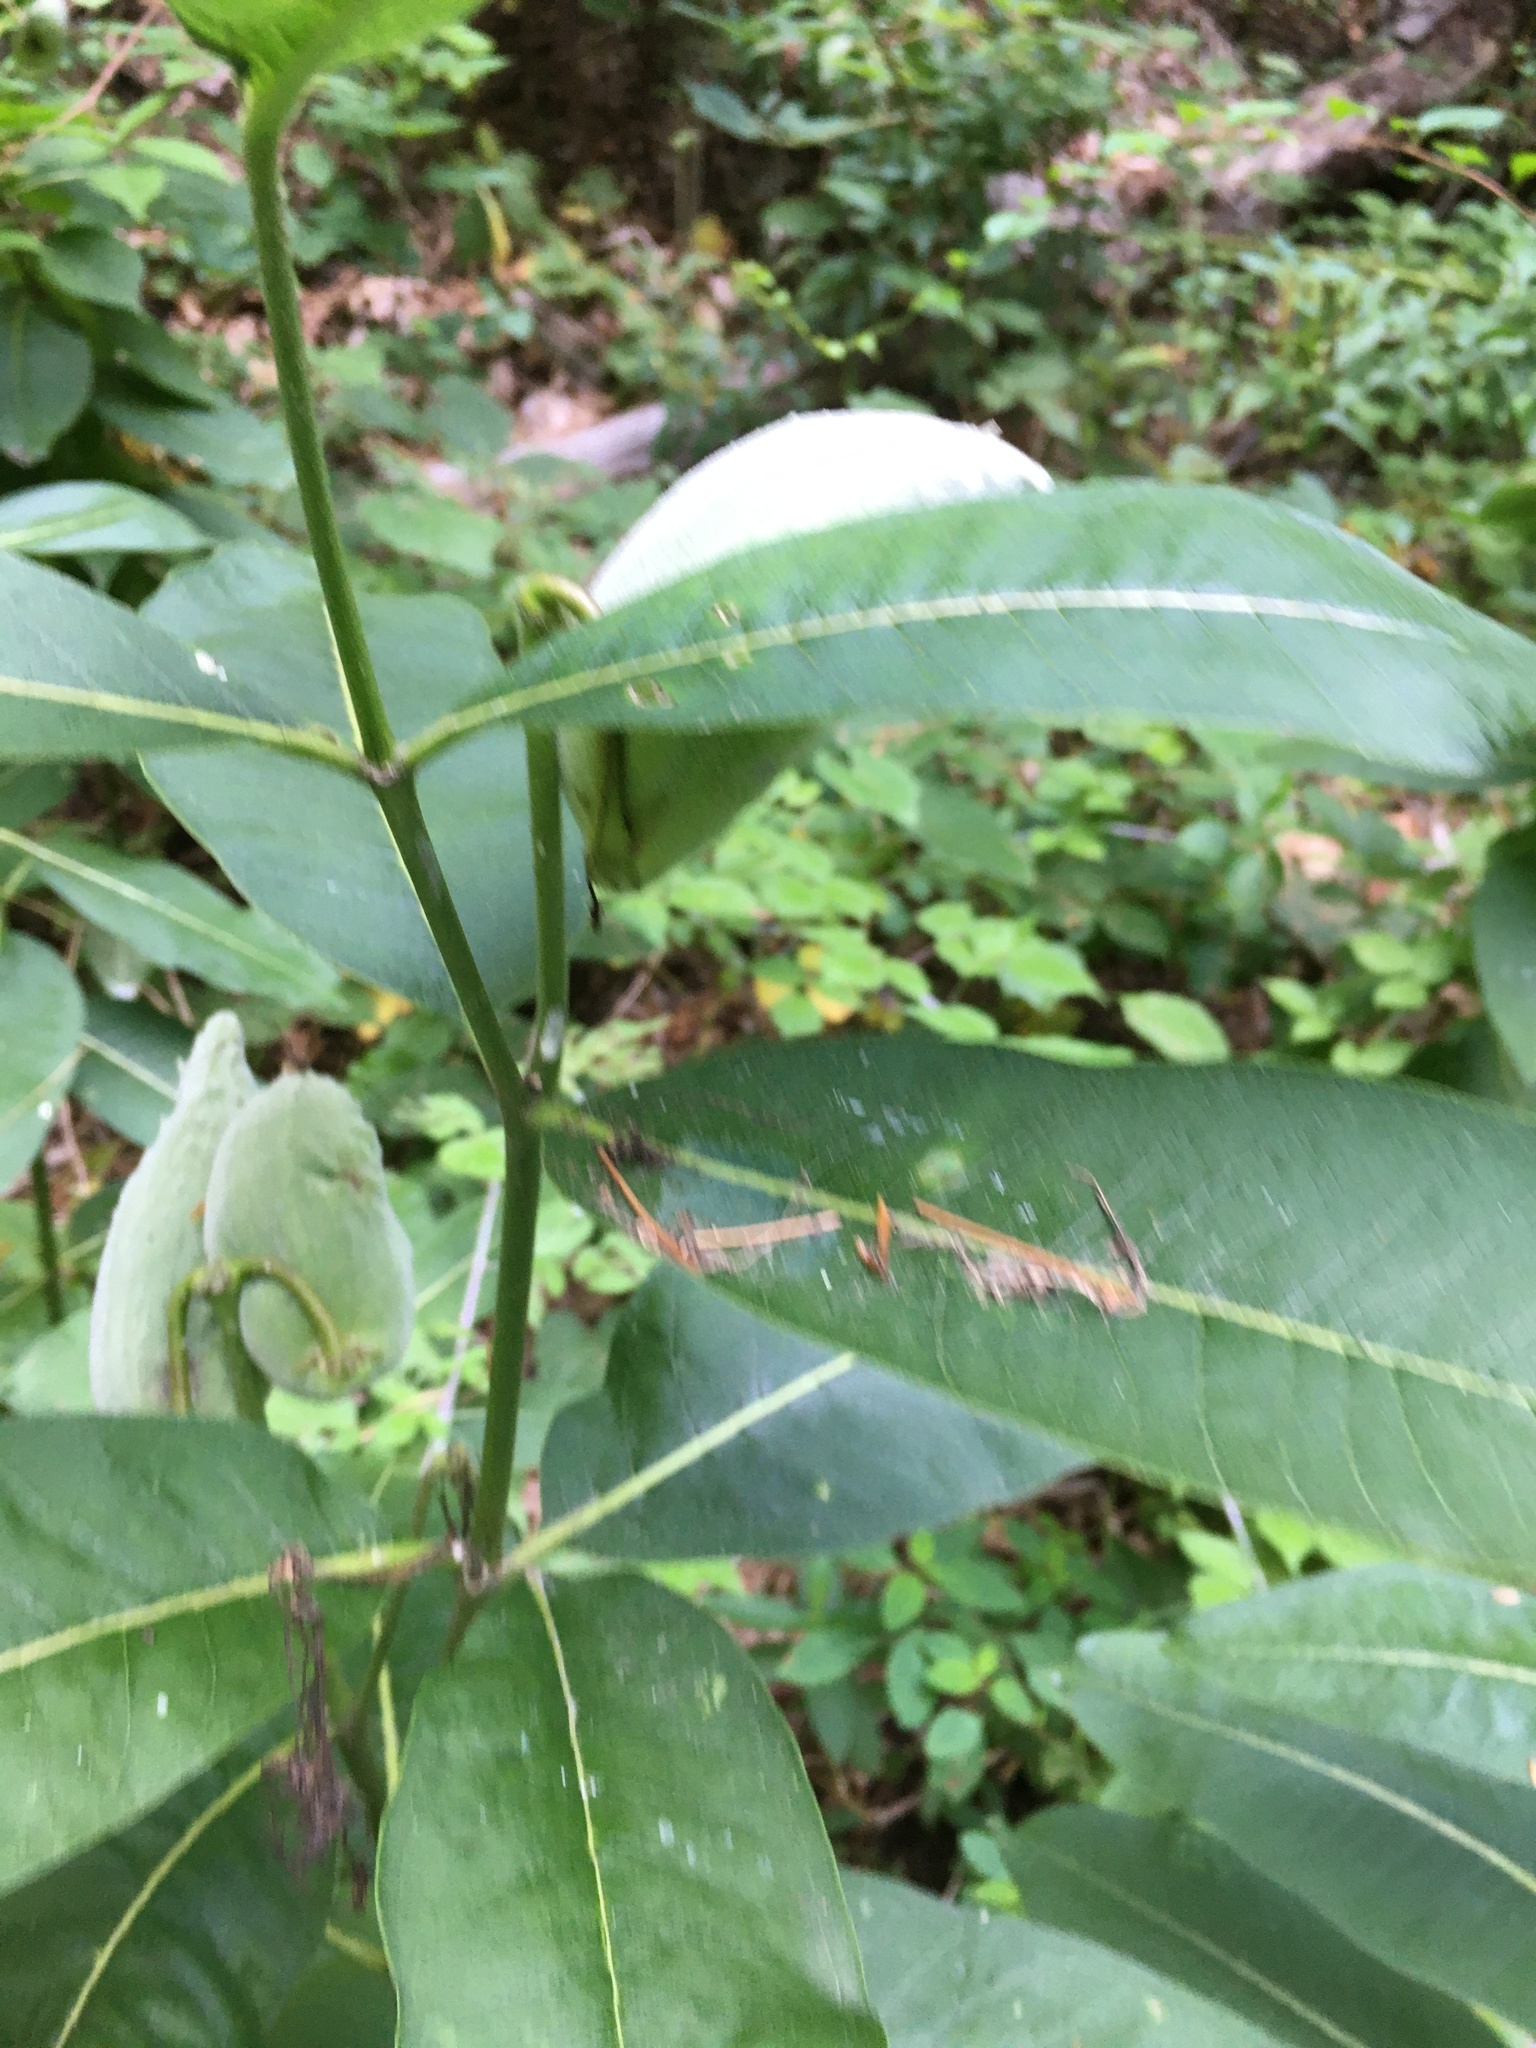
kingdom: Plantae
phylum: Tracheophyta
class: Magnoliopsida
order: Gentianales
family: Apocynaceae
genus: Asclepias
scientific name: Asclepias syriaca
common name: Common milkweed
